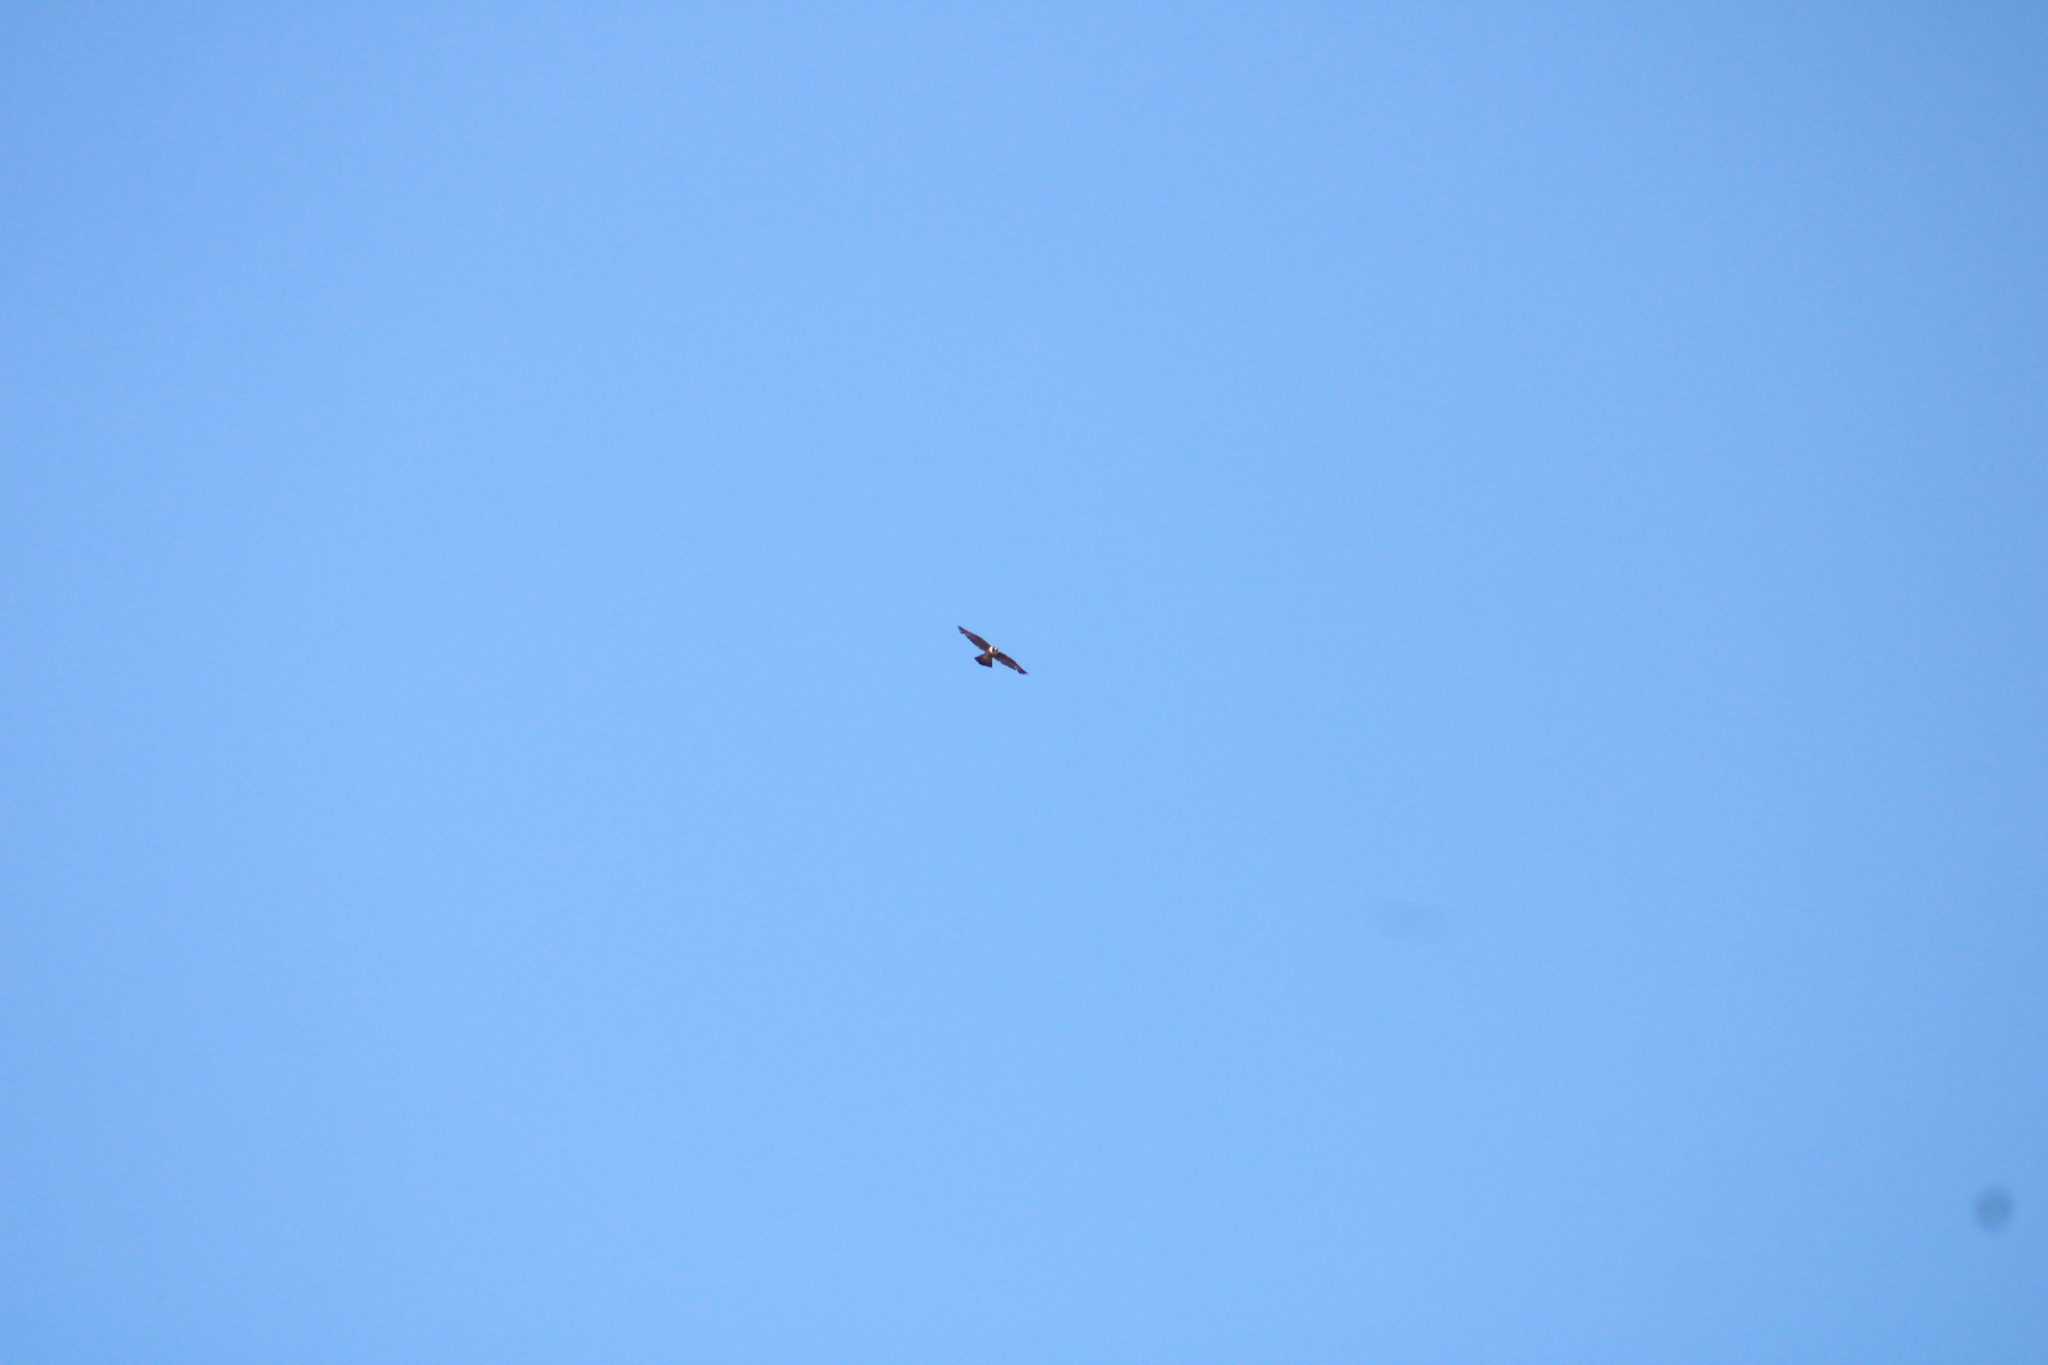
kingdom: Animalia
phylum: Chordata
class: Aves
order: Falconiformes
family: Falconidae
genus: Falco
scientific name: Falco peregrinus
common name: Peregrine falcon
